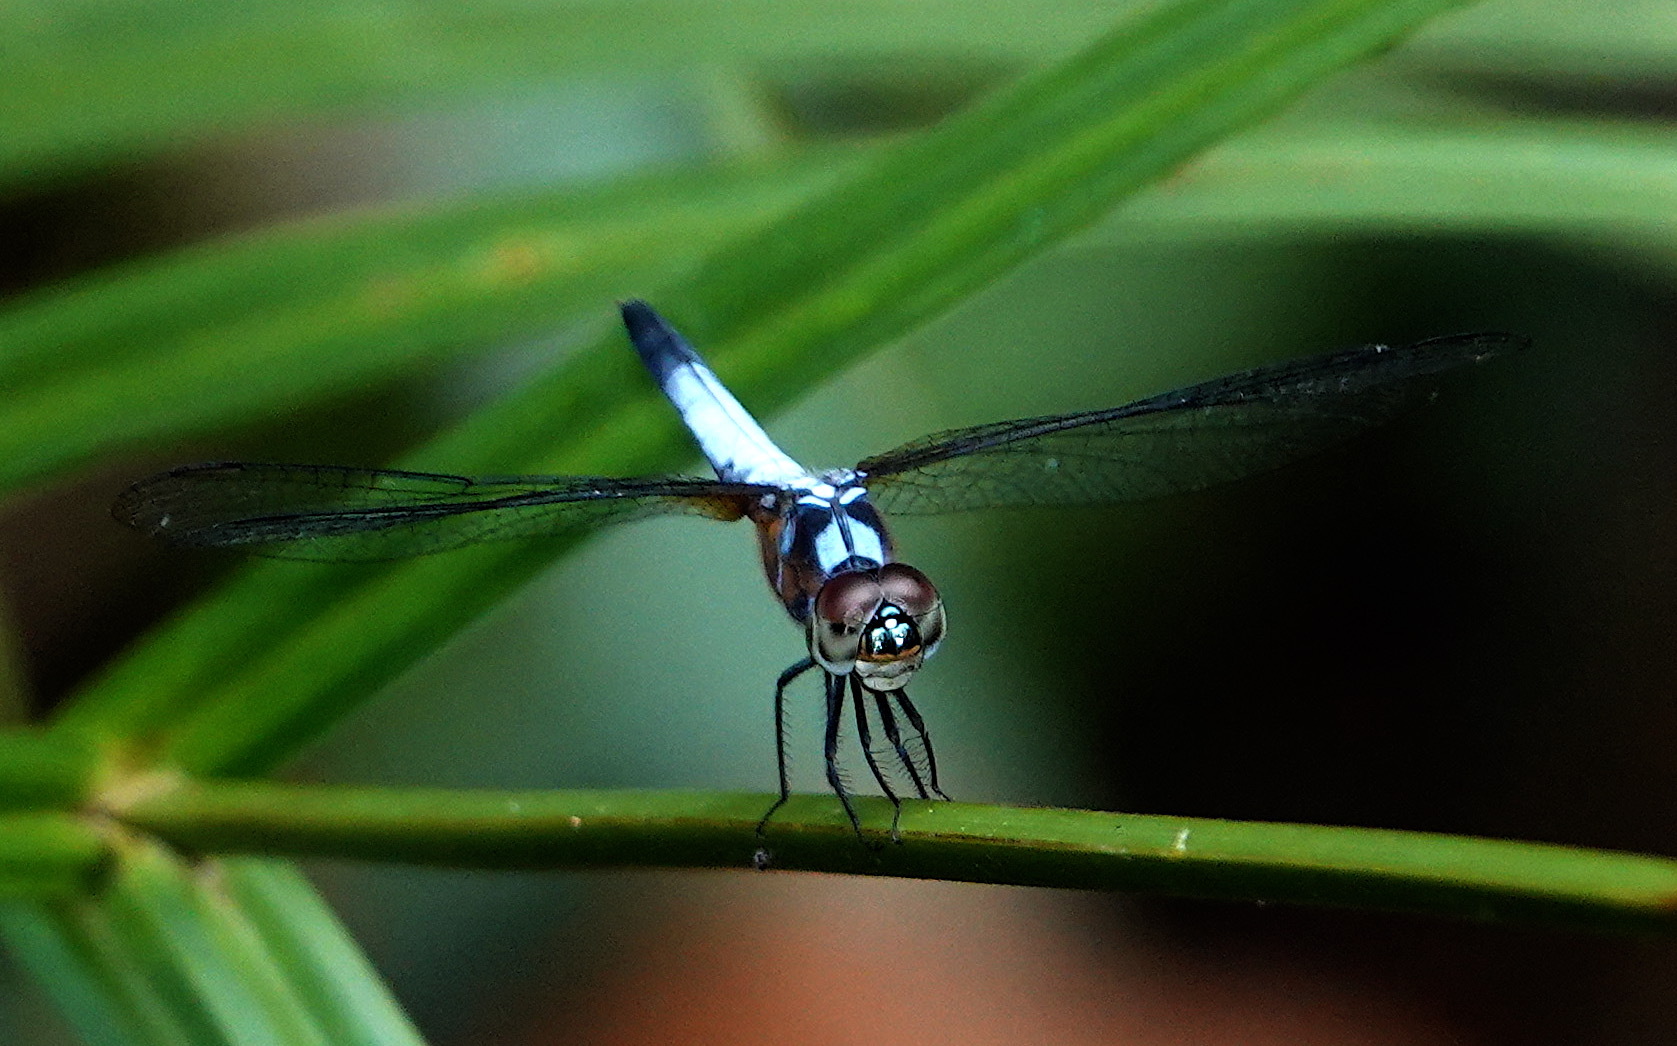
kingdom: Animalia
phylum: Arthropoda
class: Insecta
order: Odonata
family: Libellulidae
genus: Brachydiplax
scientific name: Brachydiplax chalybea
